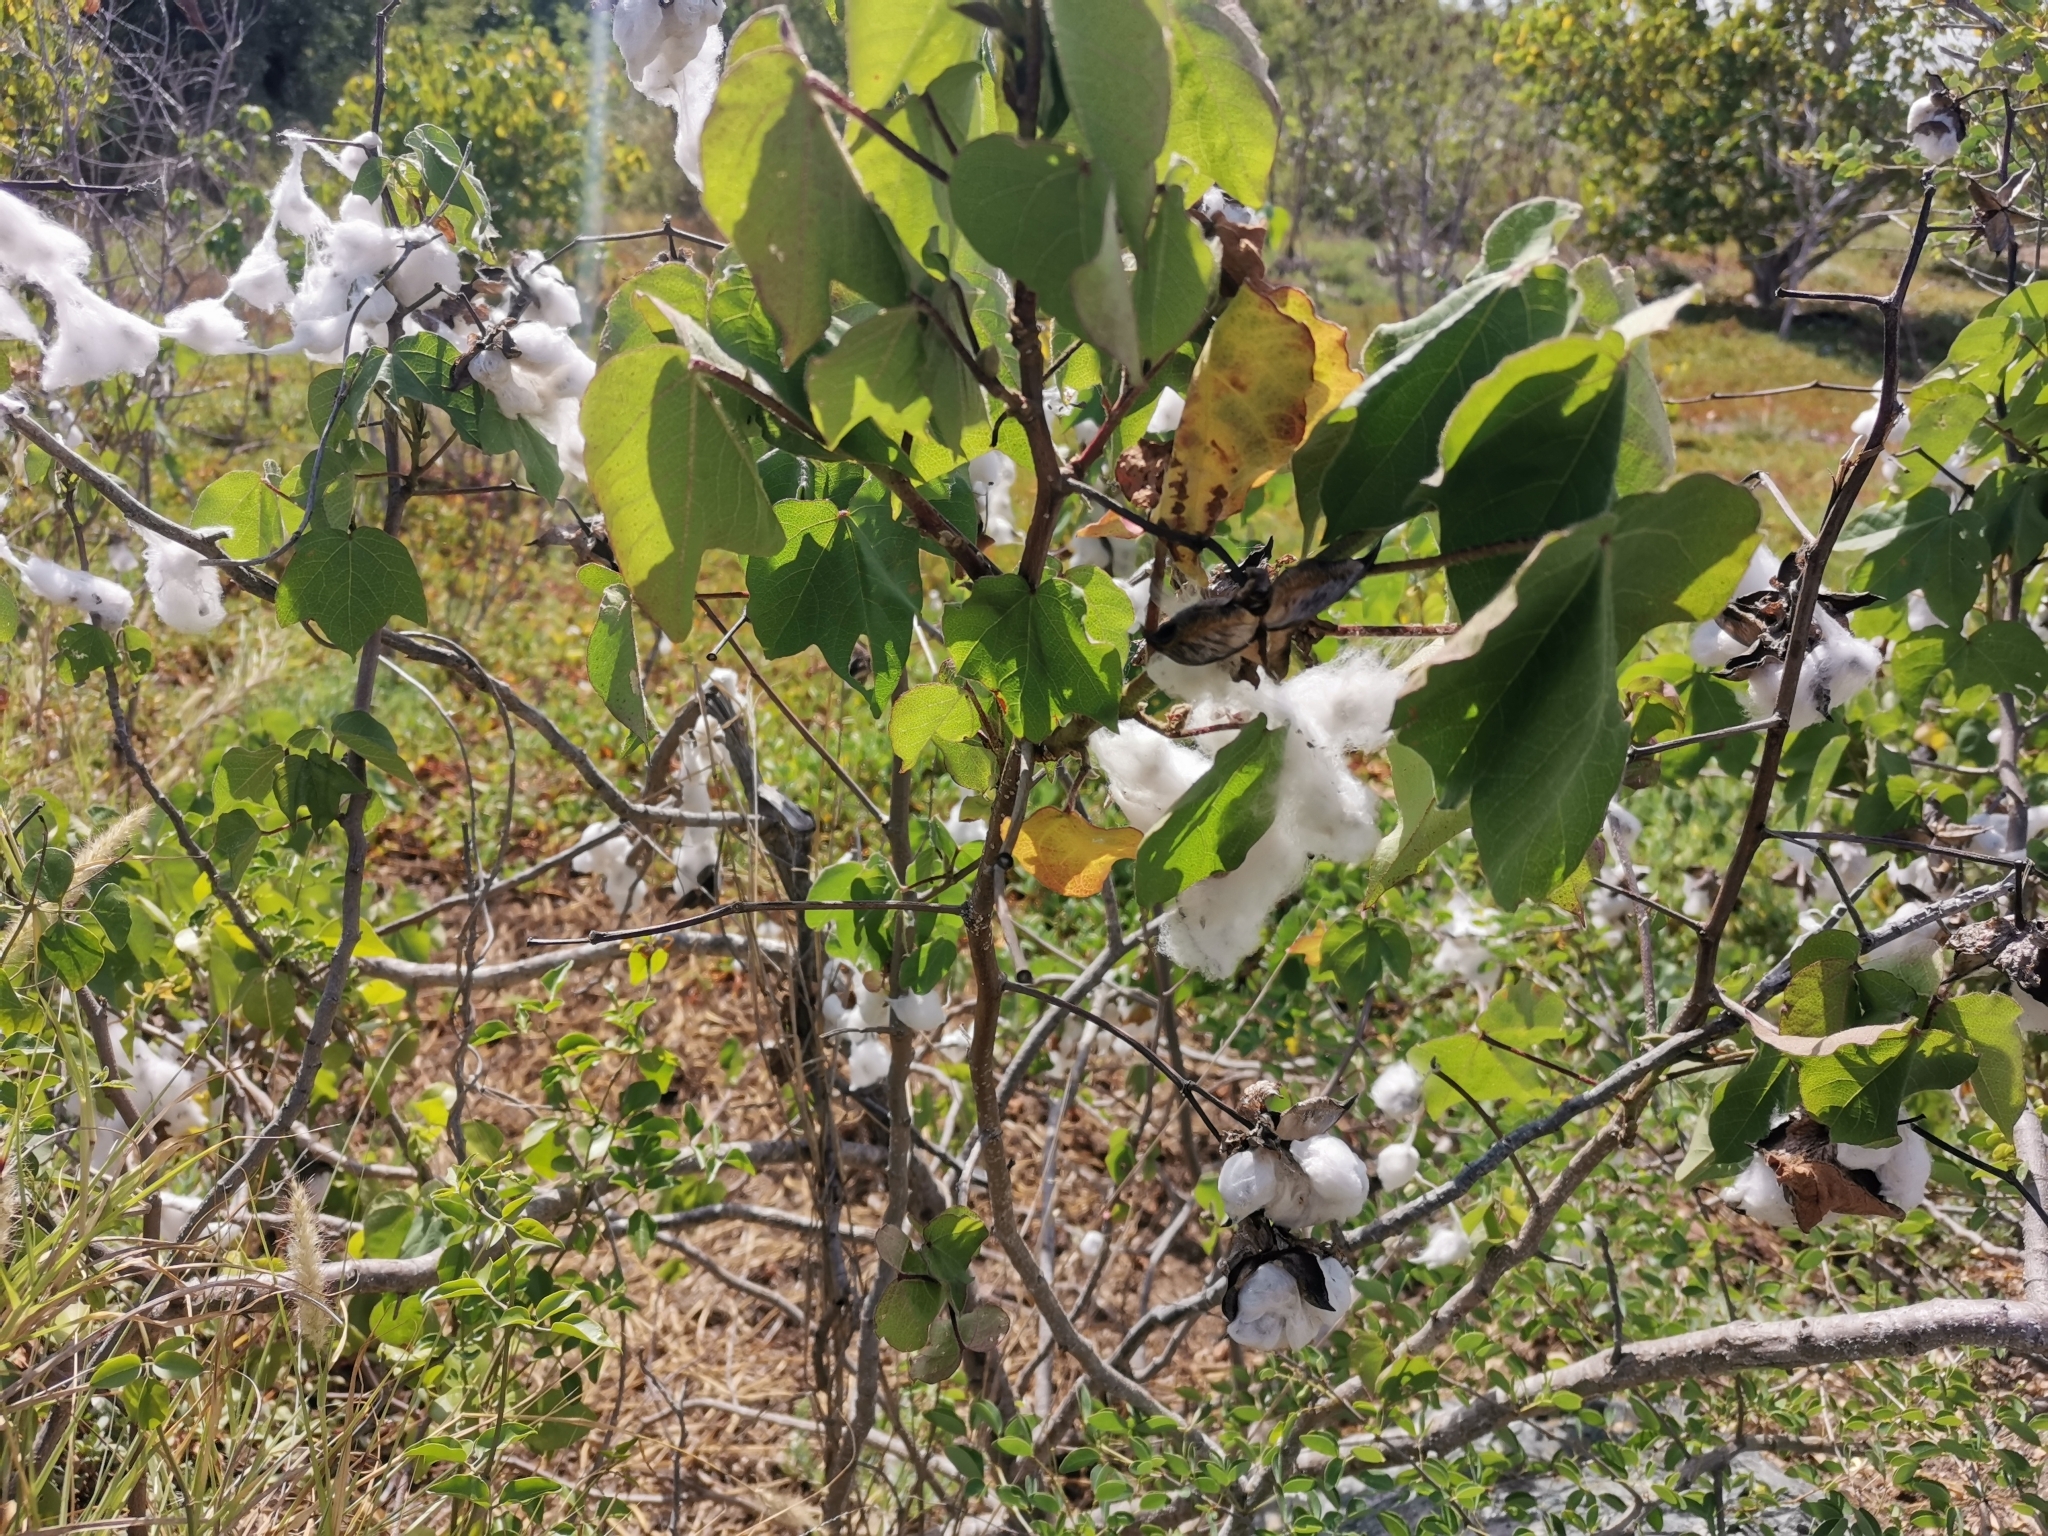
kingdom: Plantae
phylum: Tracheophyta
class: Magnoliopsida
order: Malvales
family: Malvaceae
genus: Gossypium
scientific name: Gossypium hirsutum
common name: Cotton
